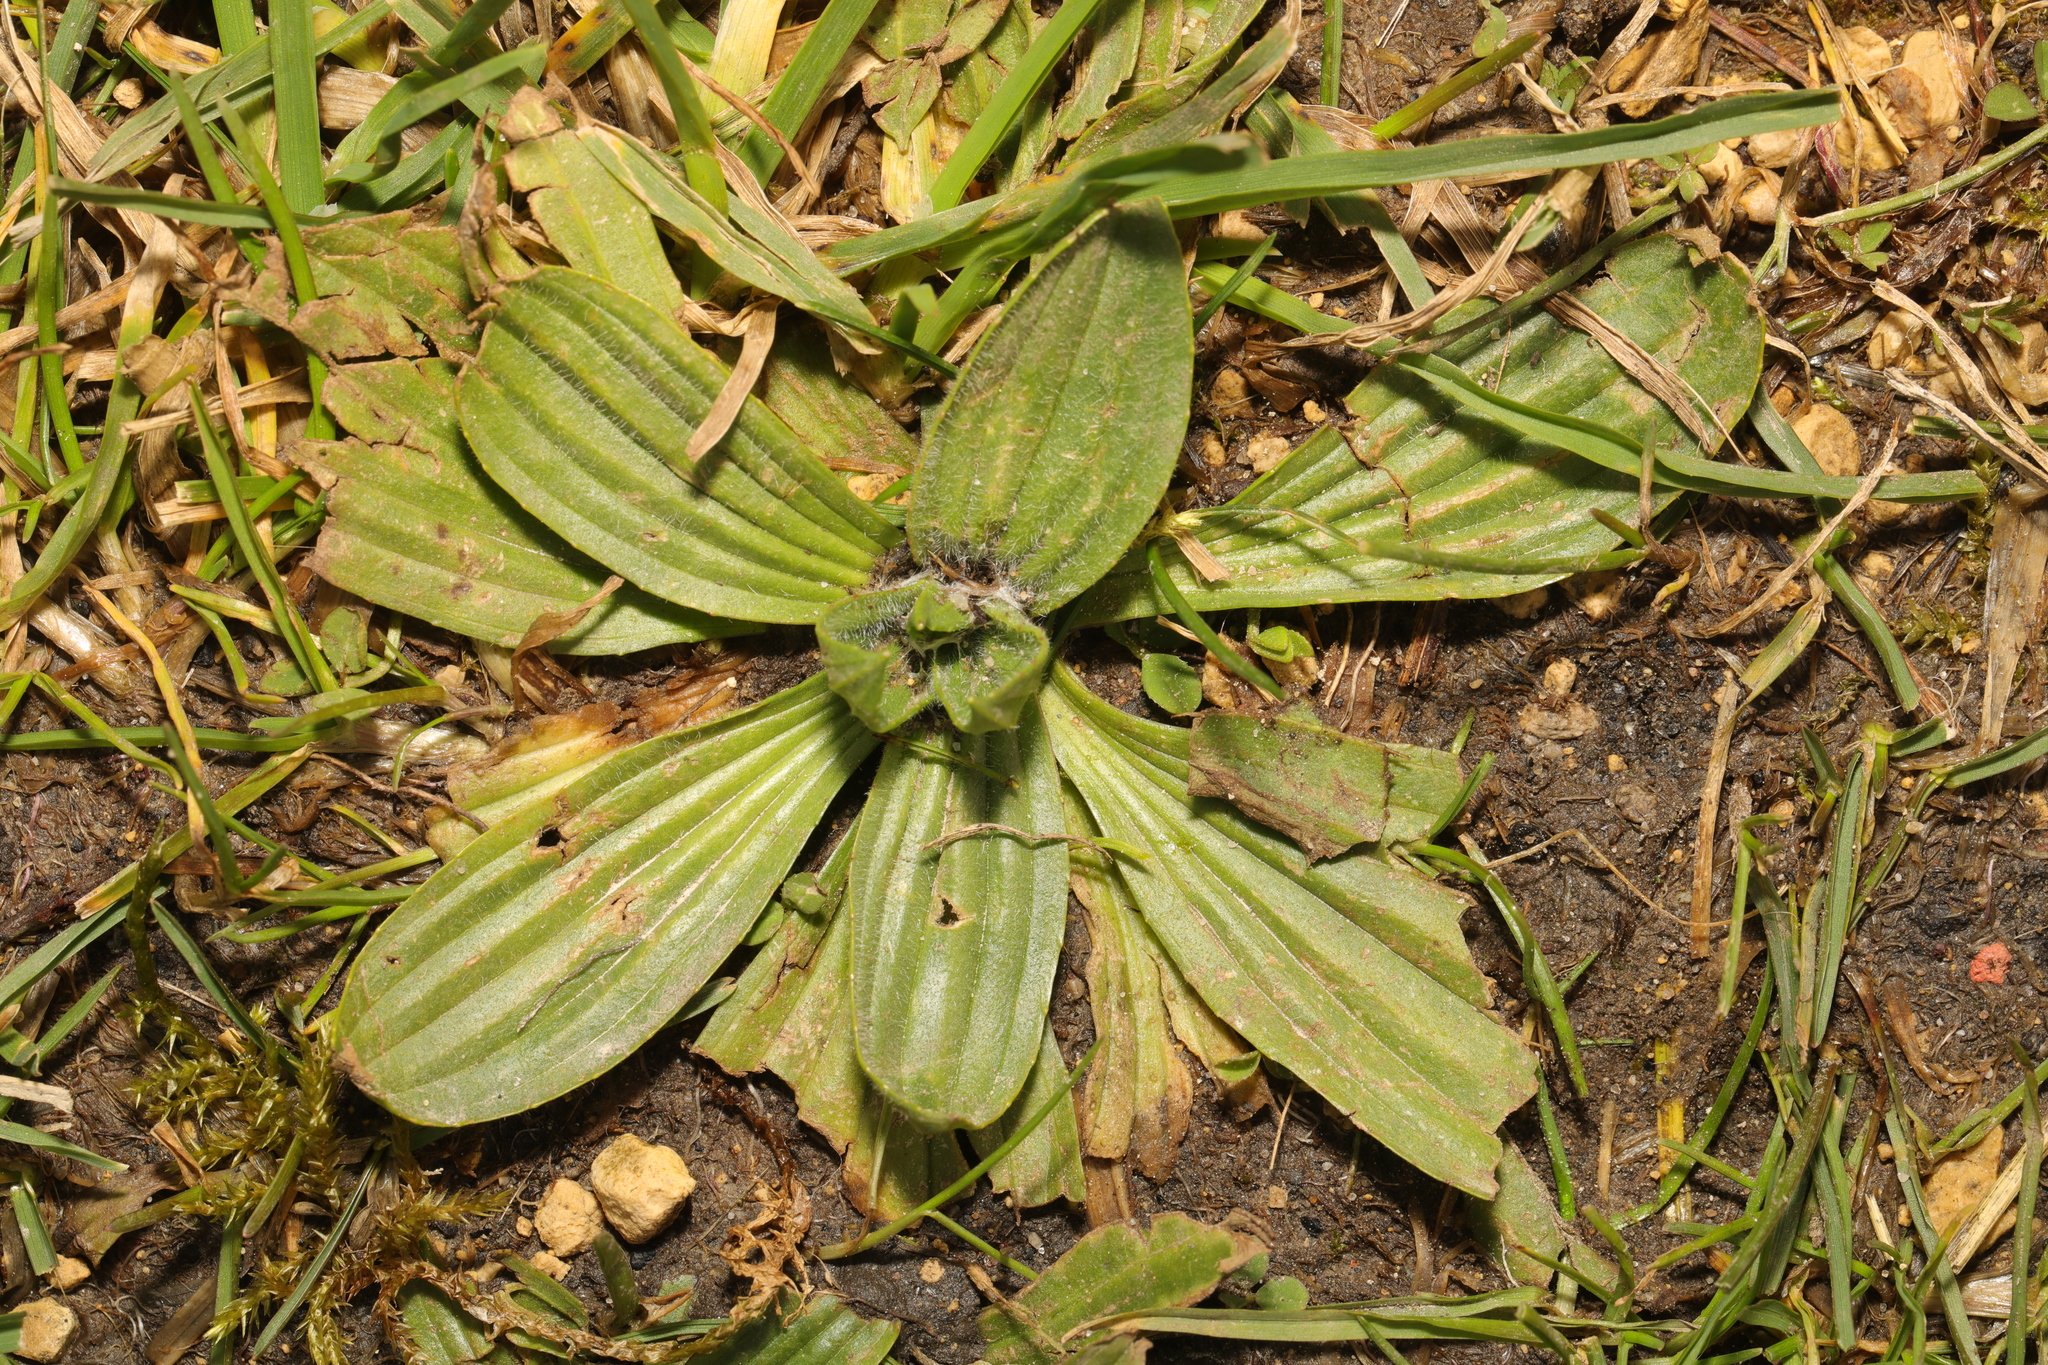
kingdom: Plantae
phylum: Tracheophyta
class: Magnoliopsida
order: Lamiales
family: Plantaginaceae
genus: Plantago
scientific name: Plantago lanceolata
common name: Ribwort plantain
